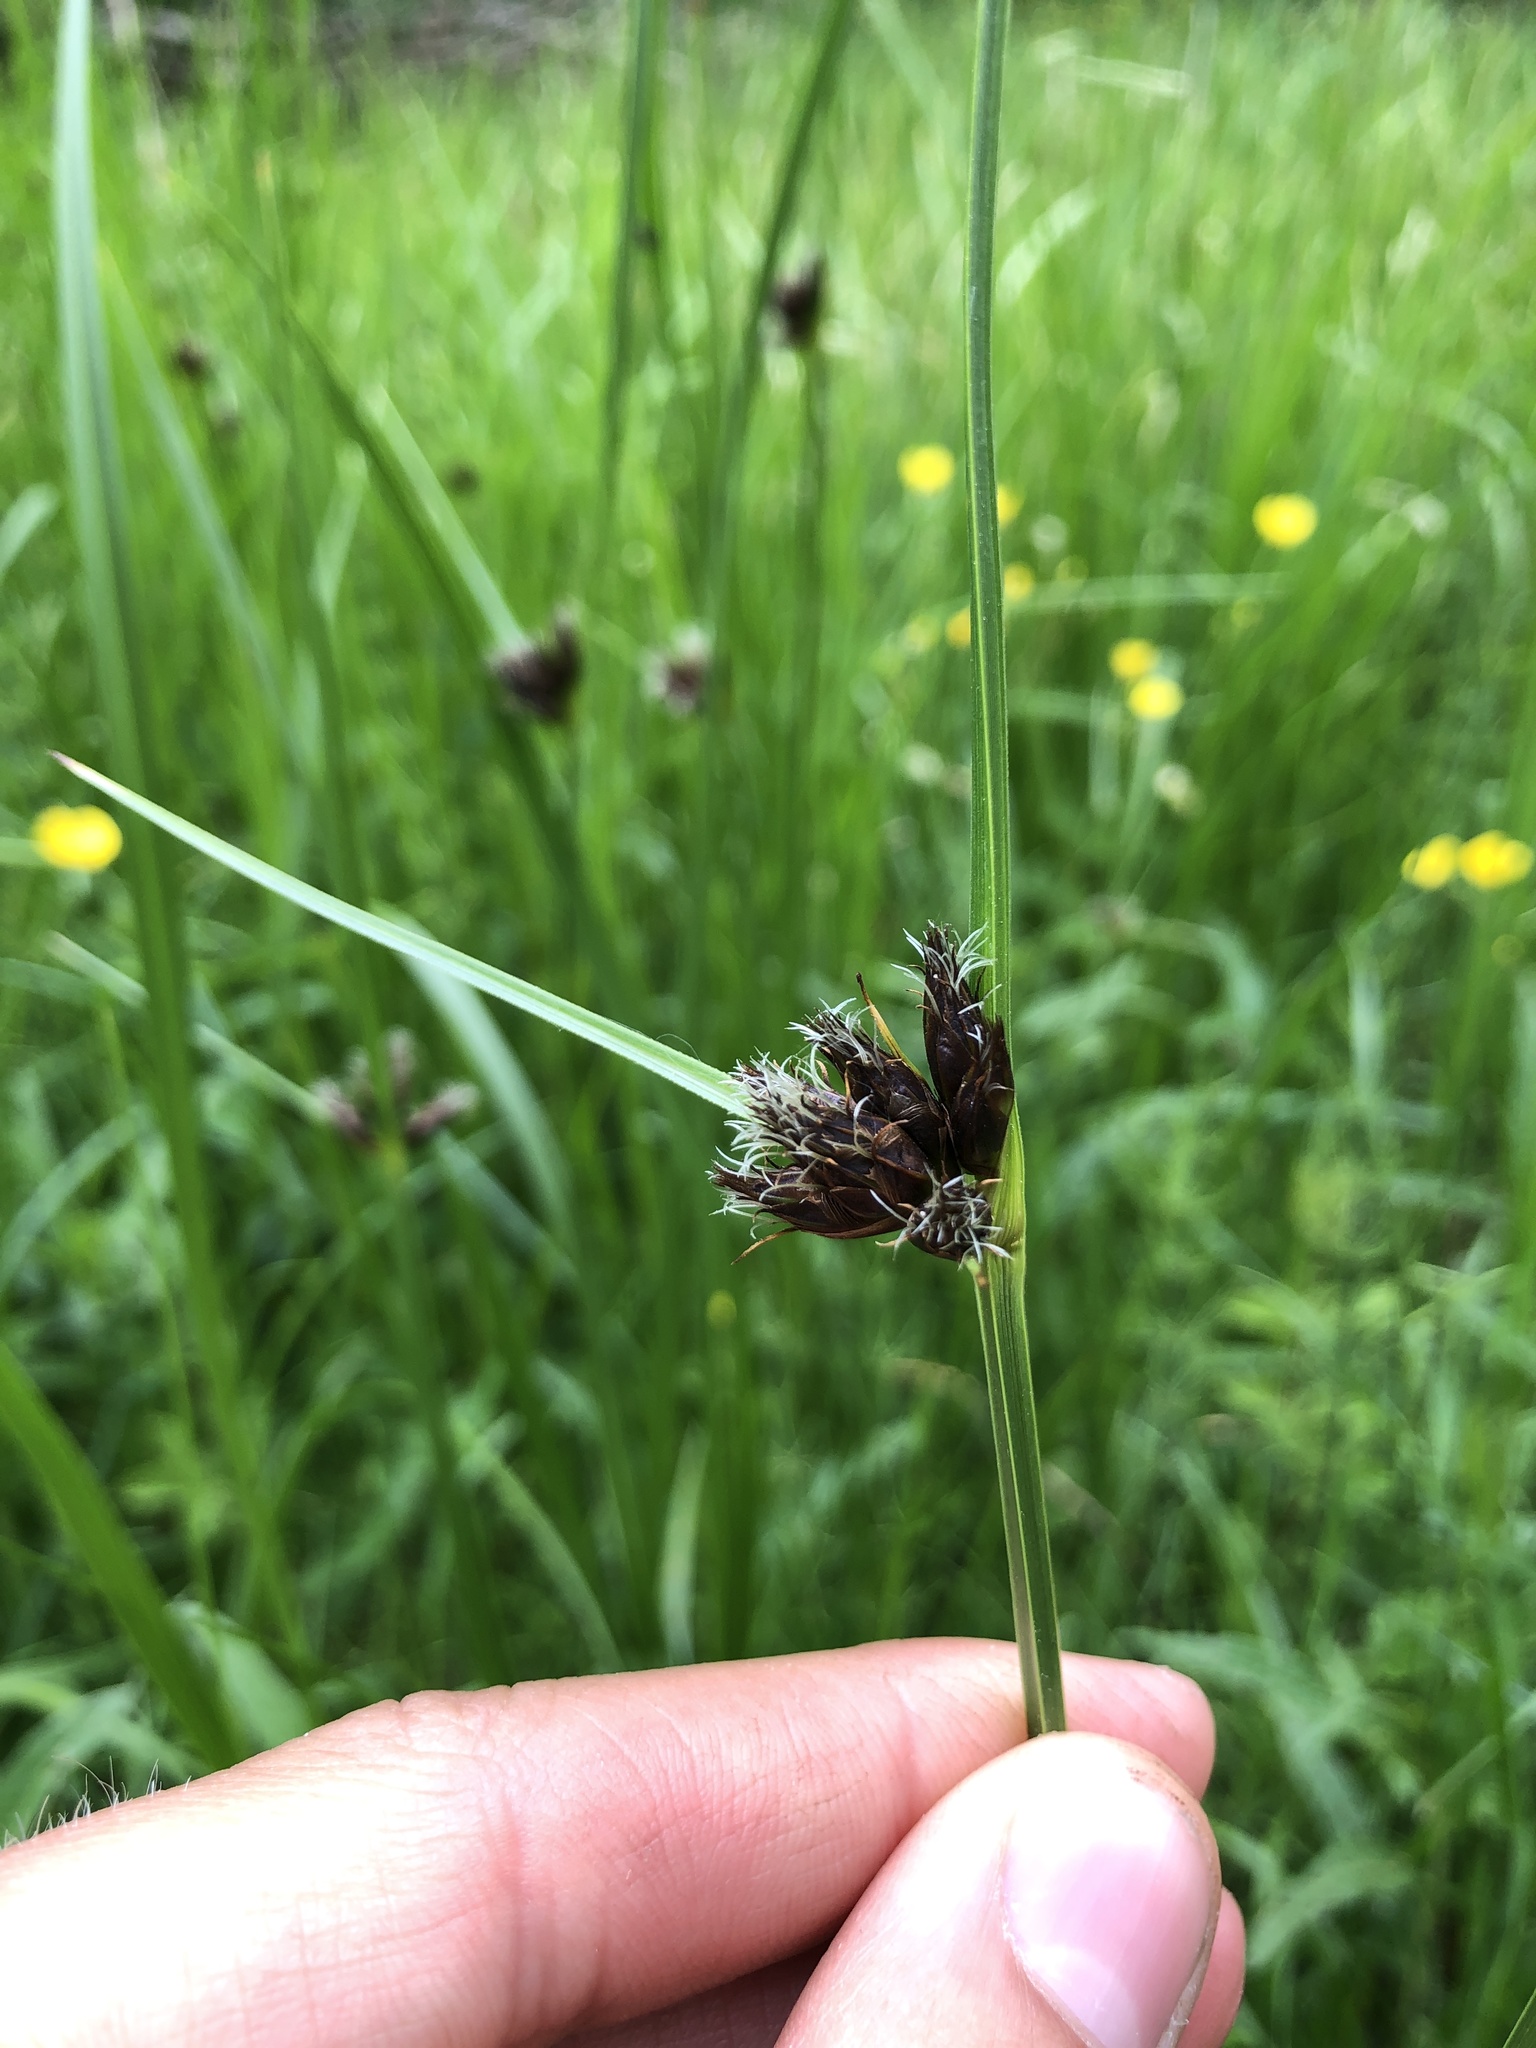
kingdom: Plantae
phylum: Tracheophyta
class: Liliopsida
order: Poales
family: Cyperaceae
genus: Bolboschoenus
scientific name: Bolboschoenus maritimus
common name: Sea club-rush
